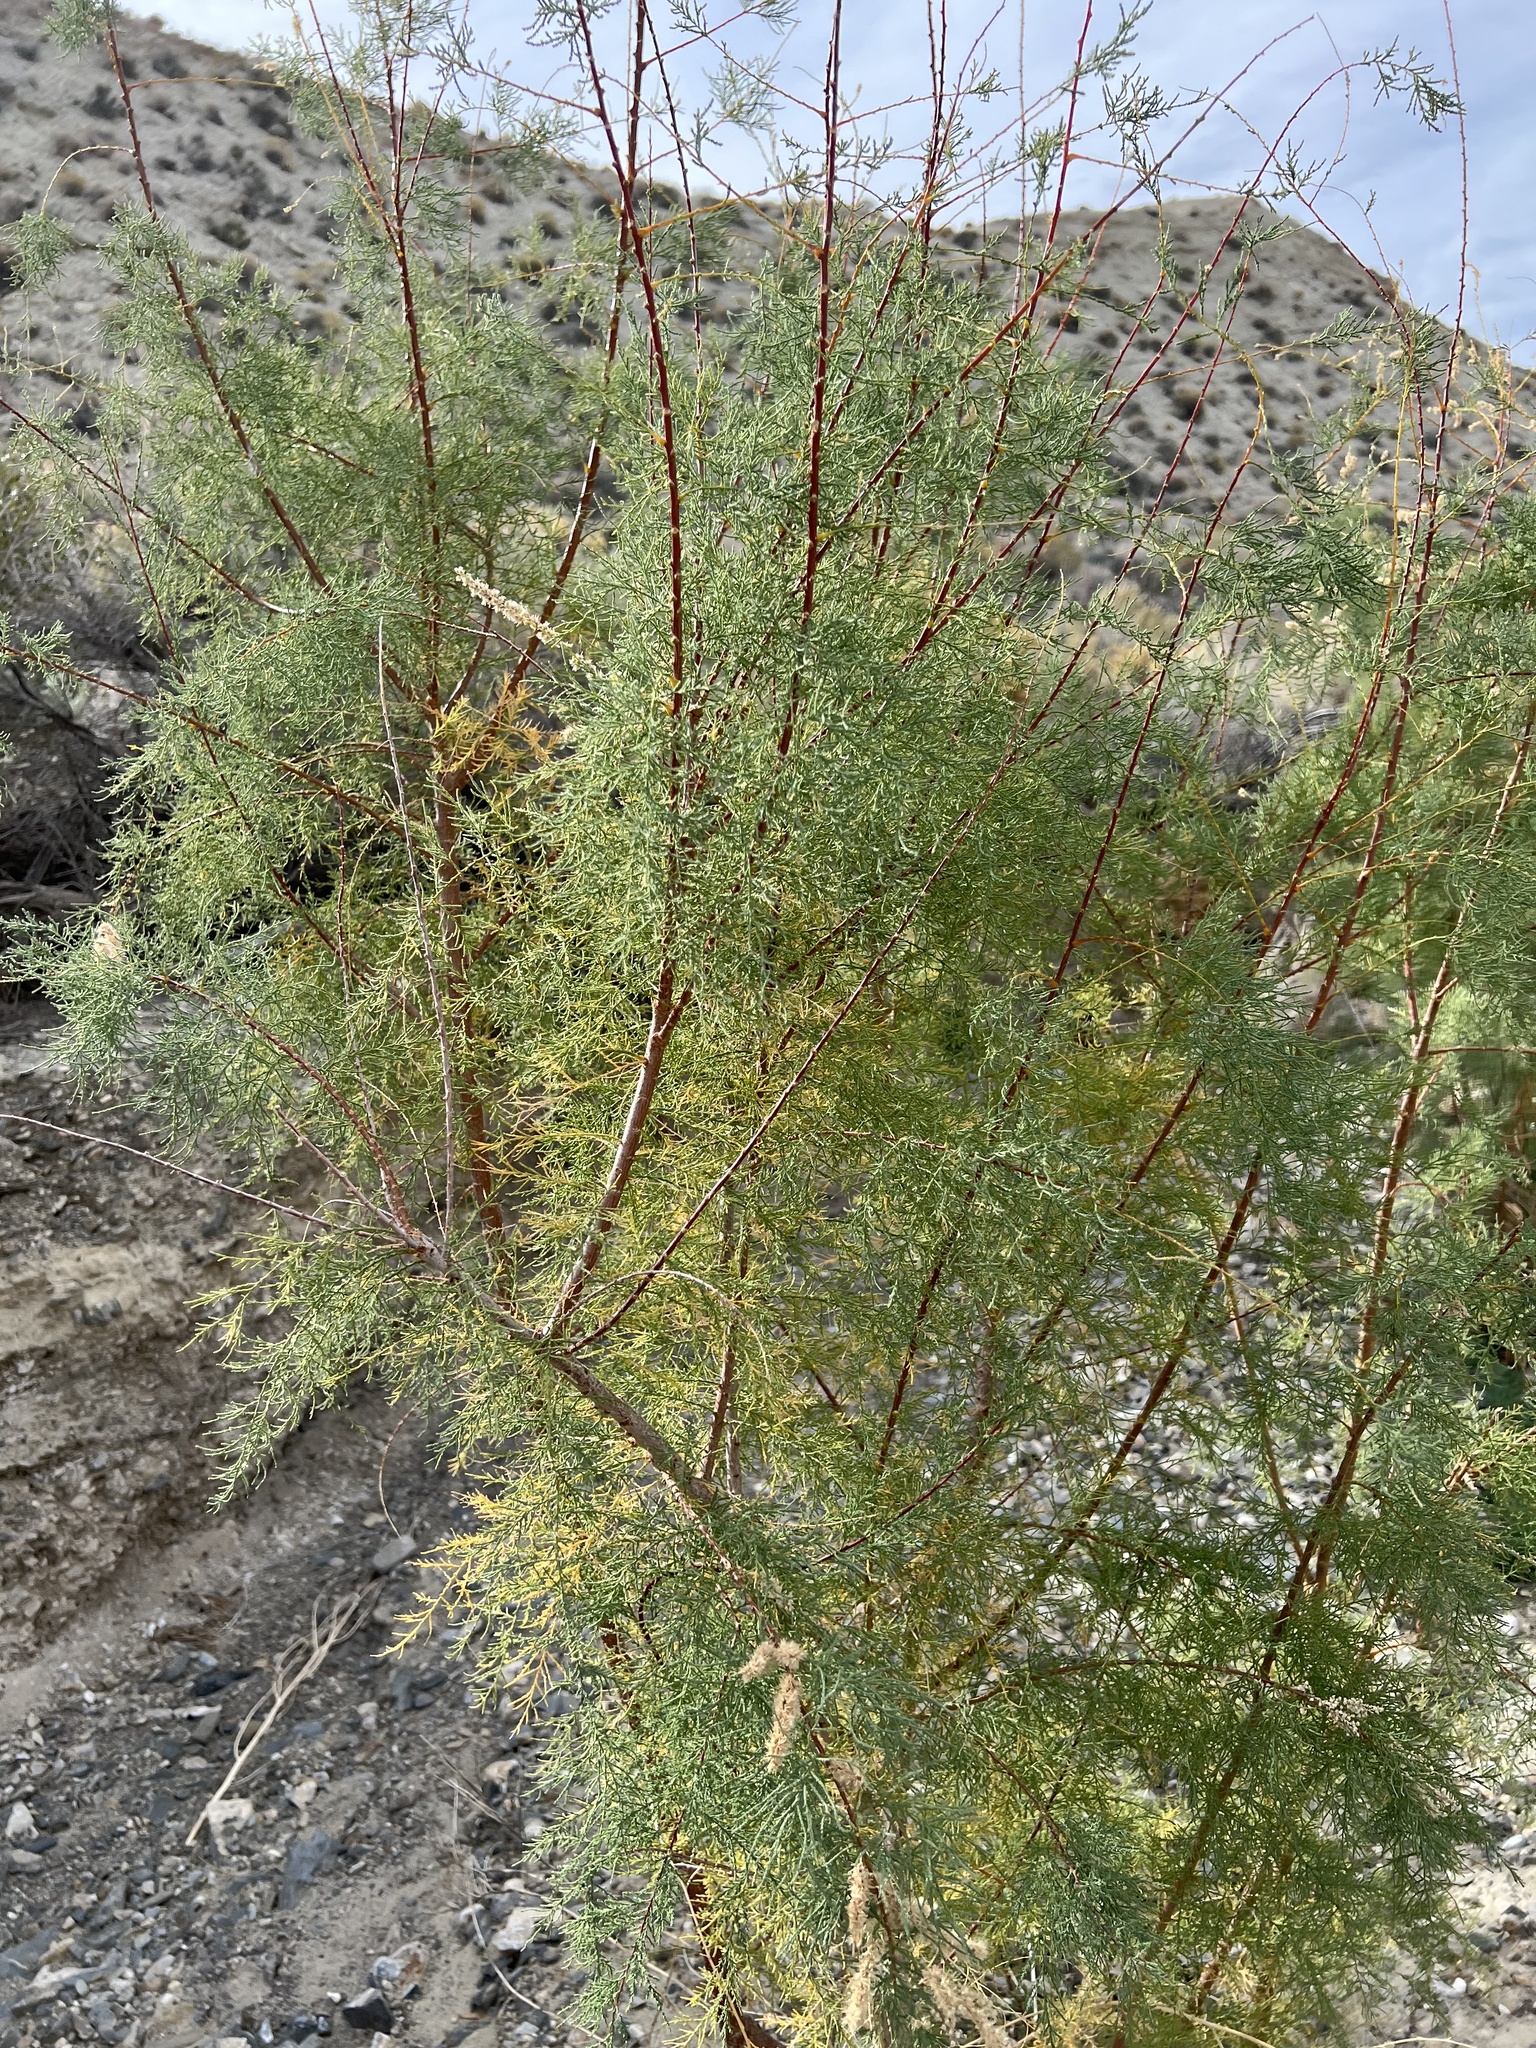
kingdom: Plantae
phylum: Tracheophyta
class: Magnoliopsida
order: Caryophyllales
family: Tamaricaceae
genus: Tamarix
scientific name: Tamarix
